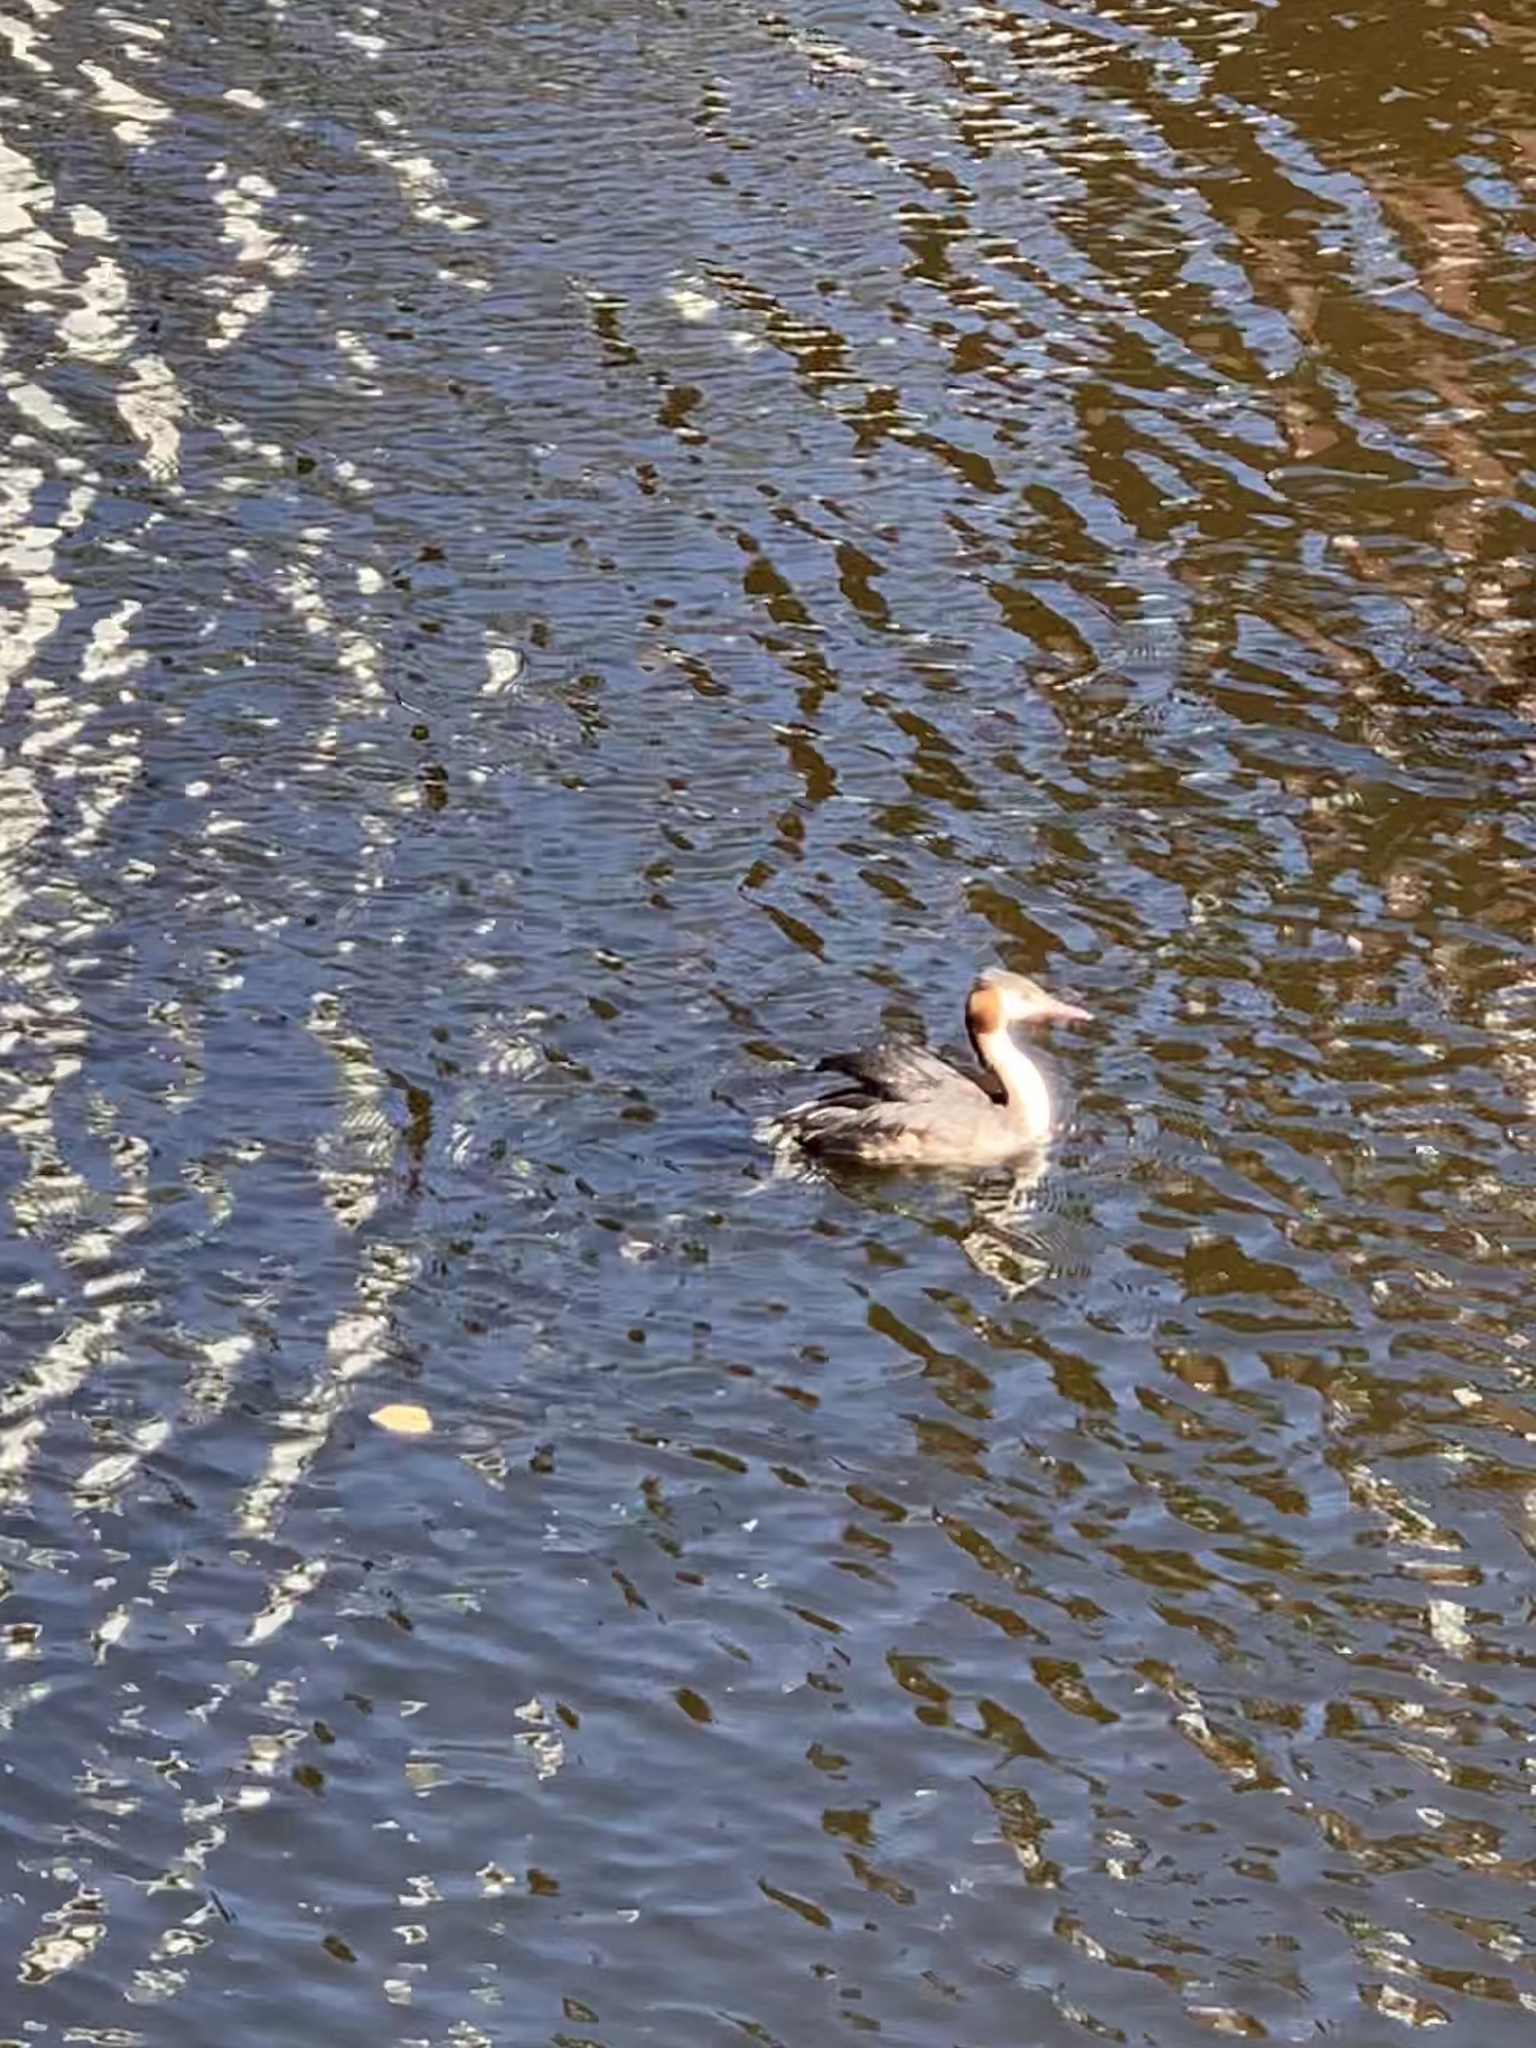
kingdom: Animalia
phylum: Chordata
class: Aves
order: Podicipediformes
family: Podicipedidae
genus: Podiceps
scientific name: Podiceps cristatus
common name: Great crested grebe
